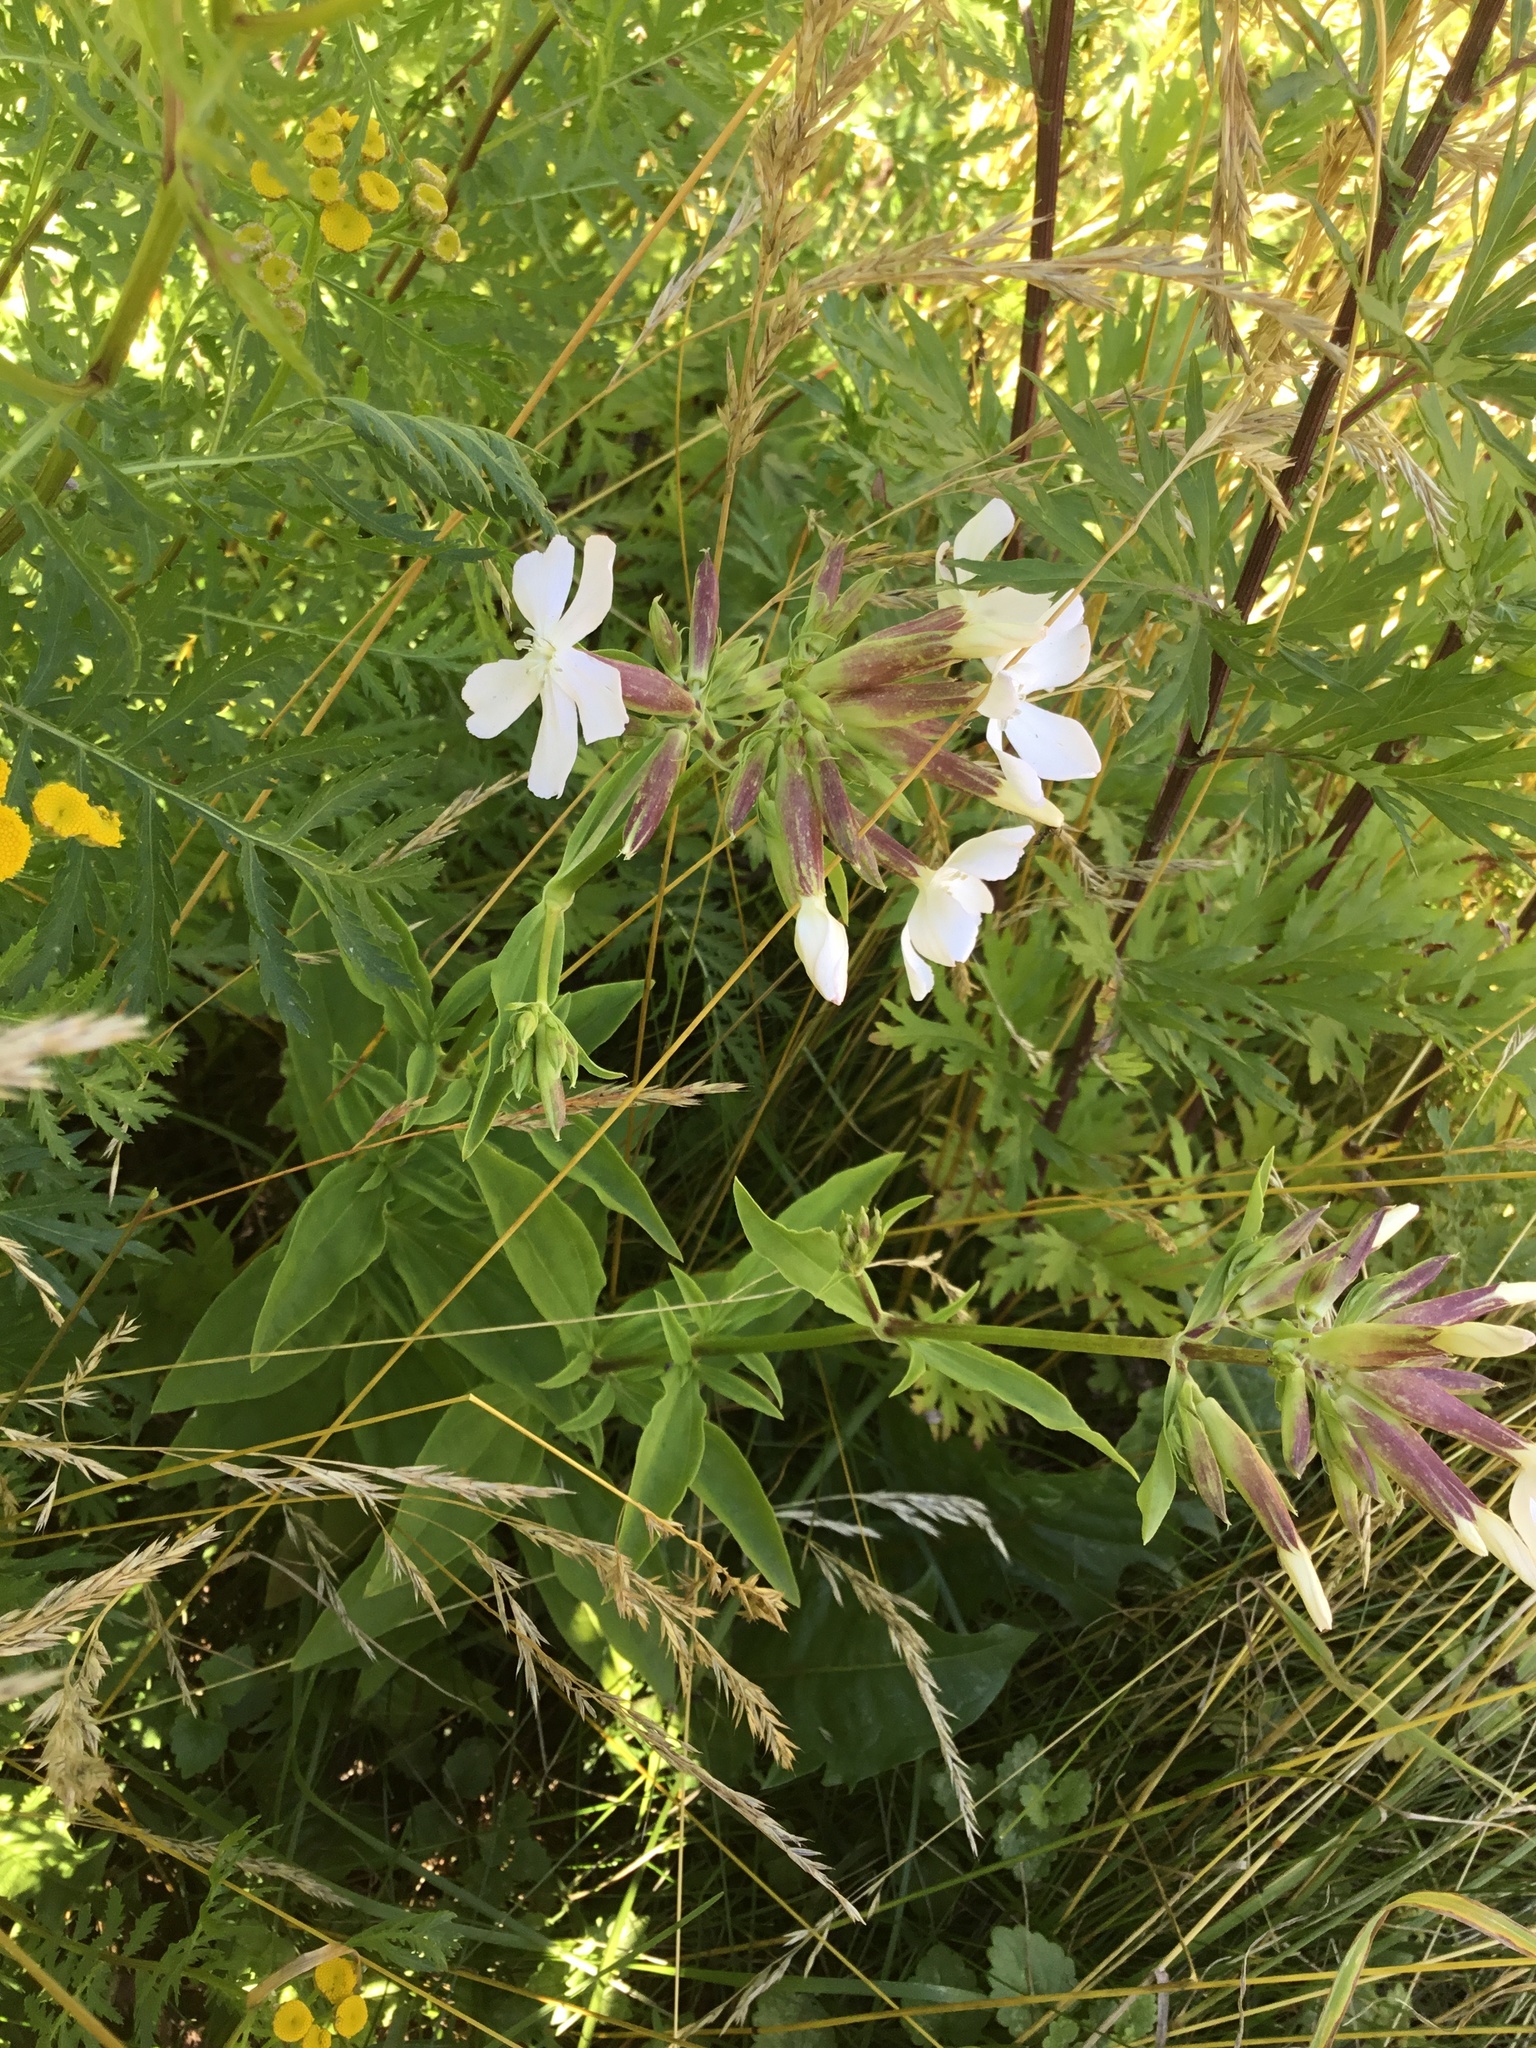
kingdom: Plantae
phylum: Tracheophyta
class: Magnoliopsida
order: Caryophyllales
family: Caryophyllaceae
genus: Saponaria
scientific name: Saponaria officinalis
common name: Soapwort
